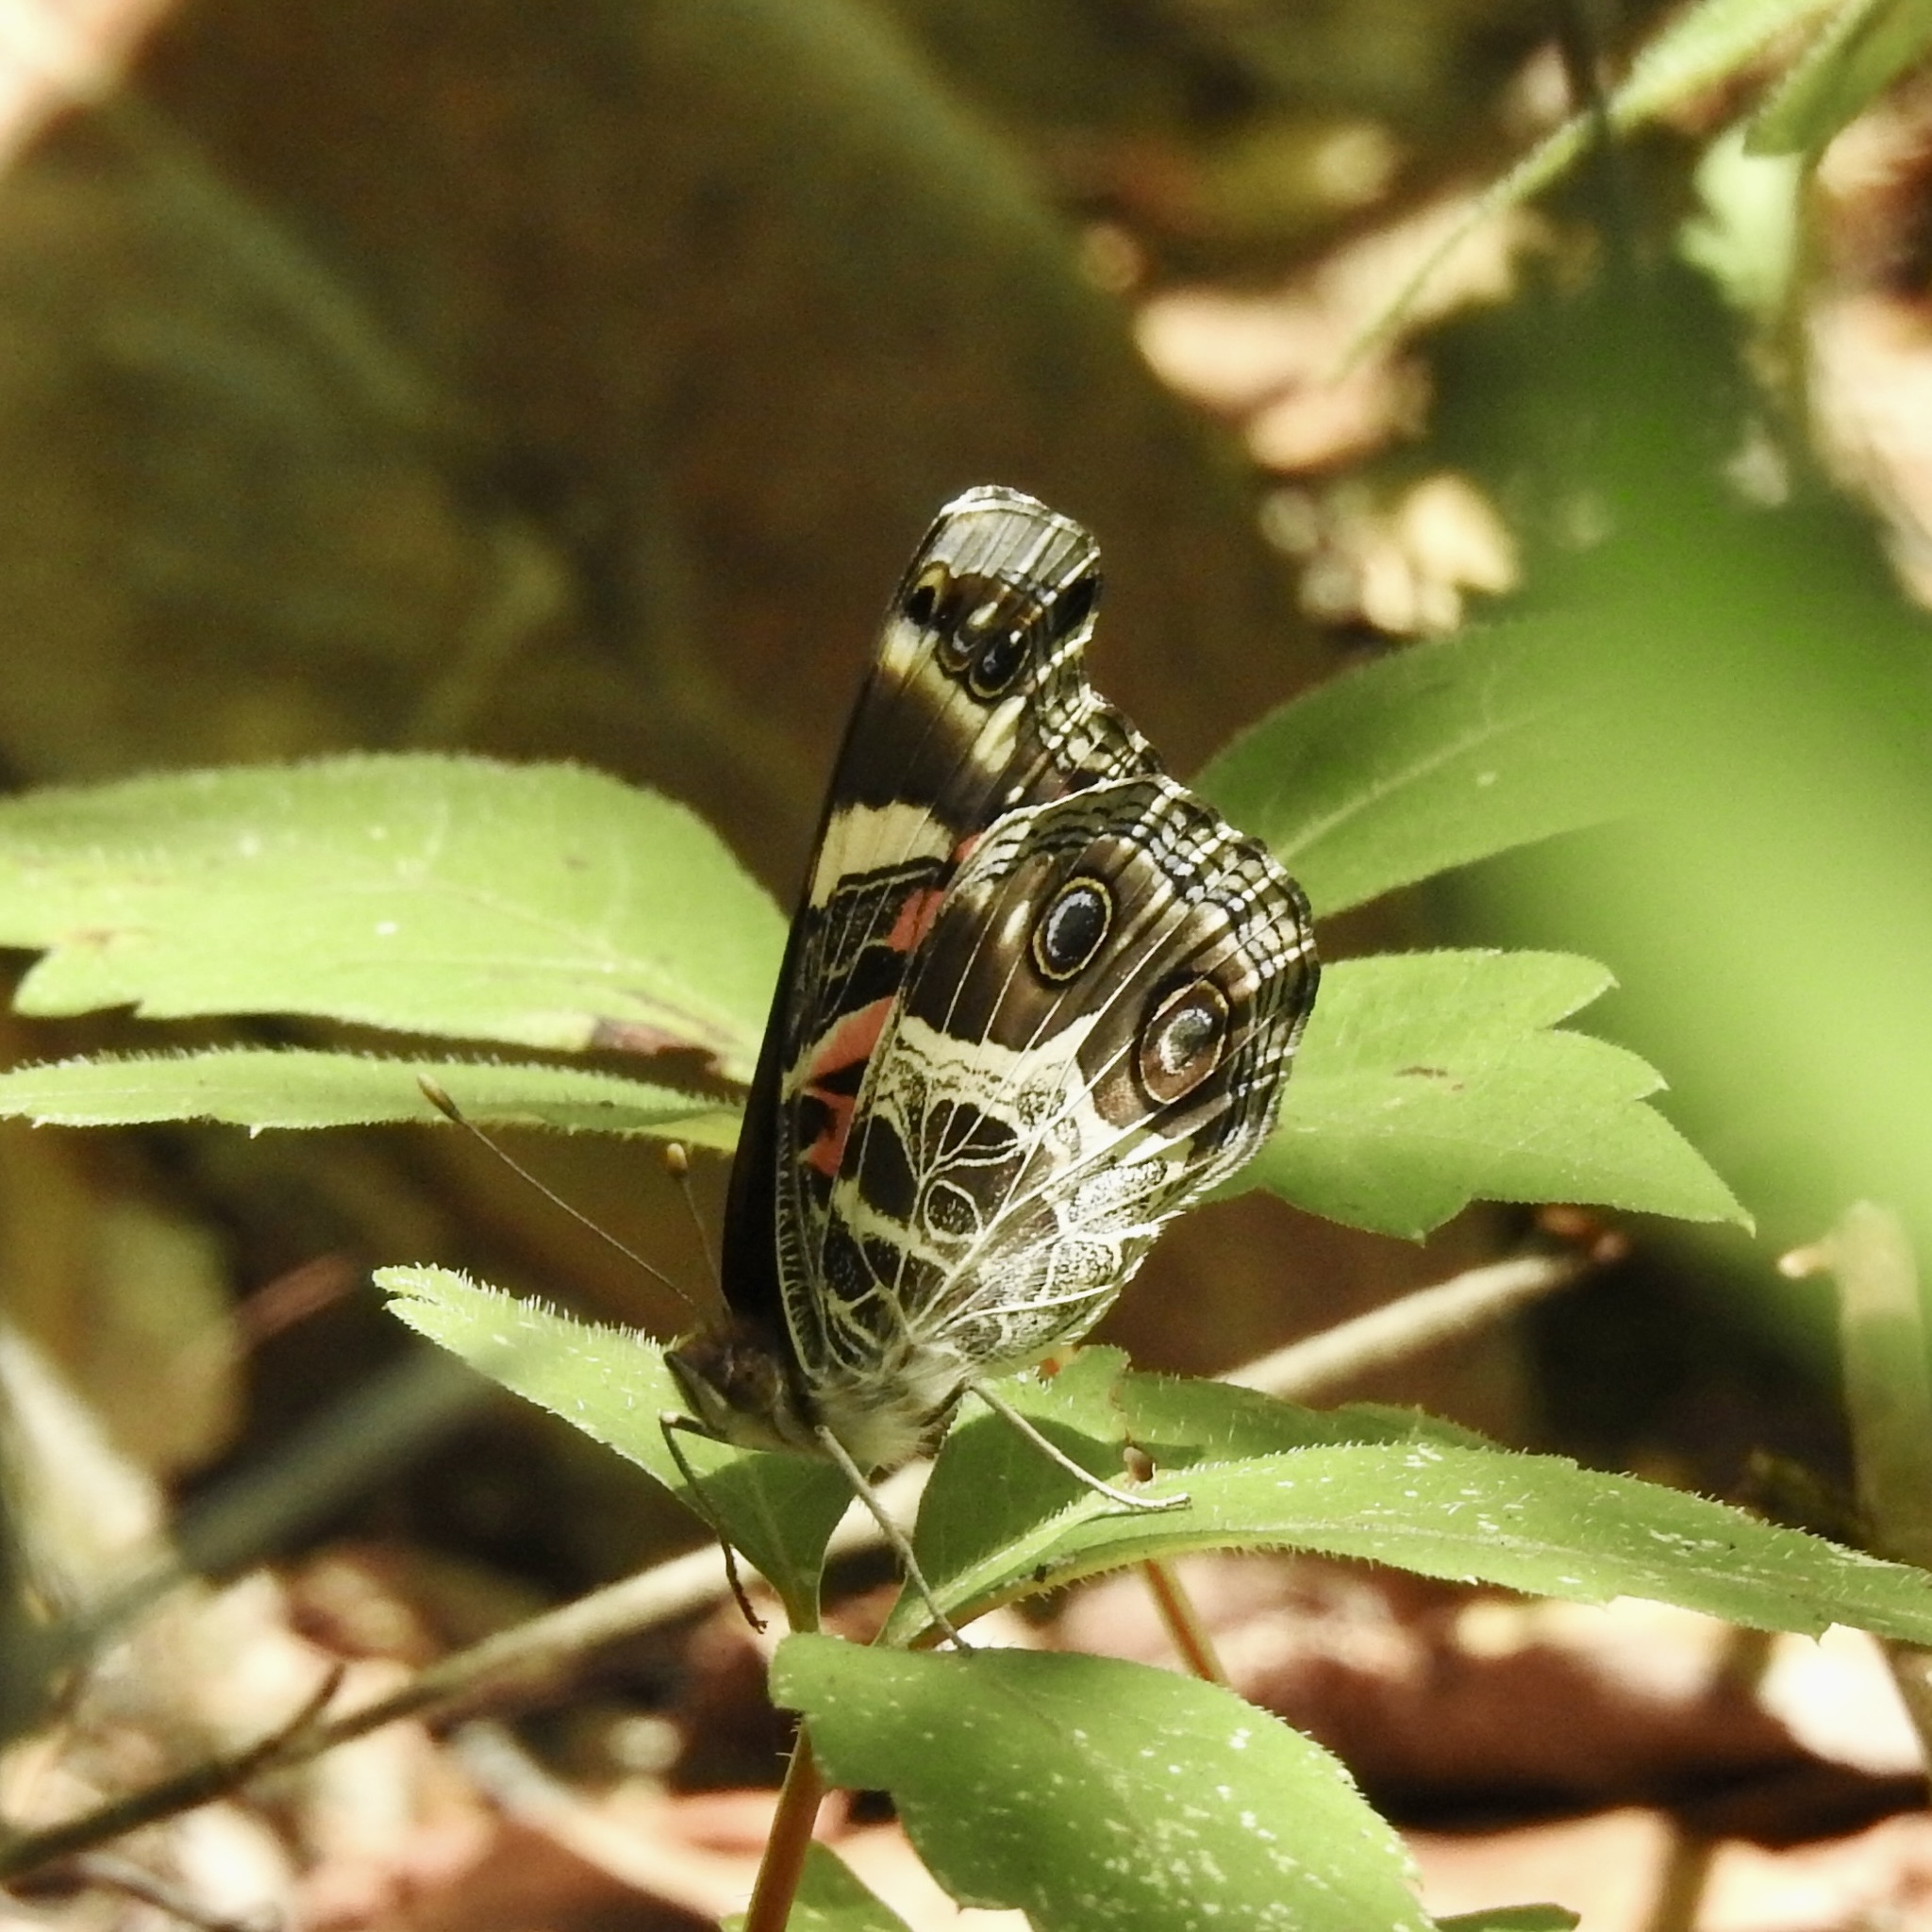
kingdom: Animalia
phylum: Arthropoda
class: Insecta
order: Lepidoptera
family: Nymphalidae
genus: Vanessa
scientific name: Vanessa virginiensis
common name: American lady
